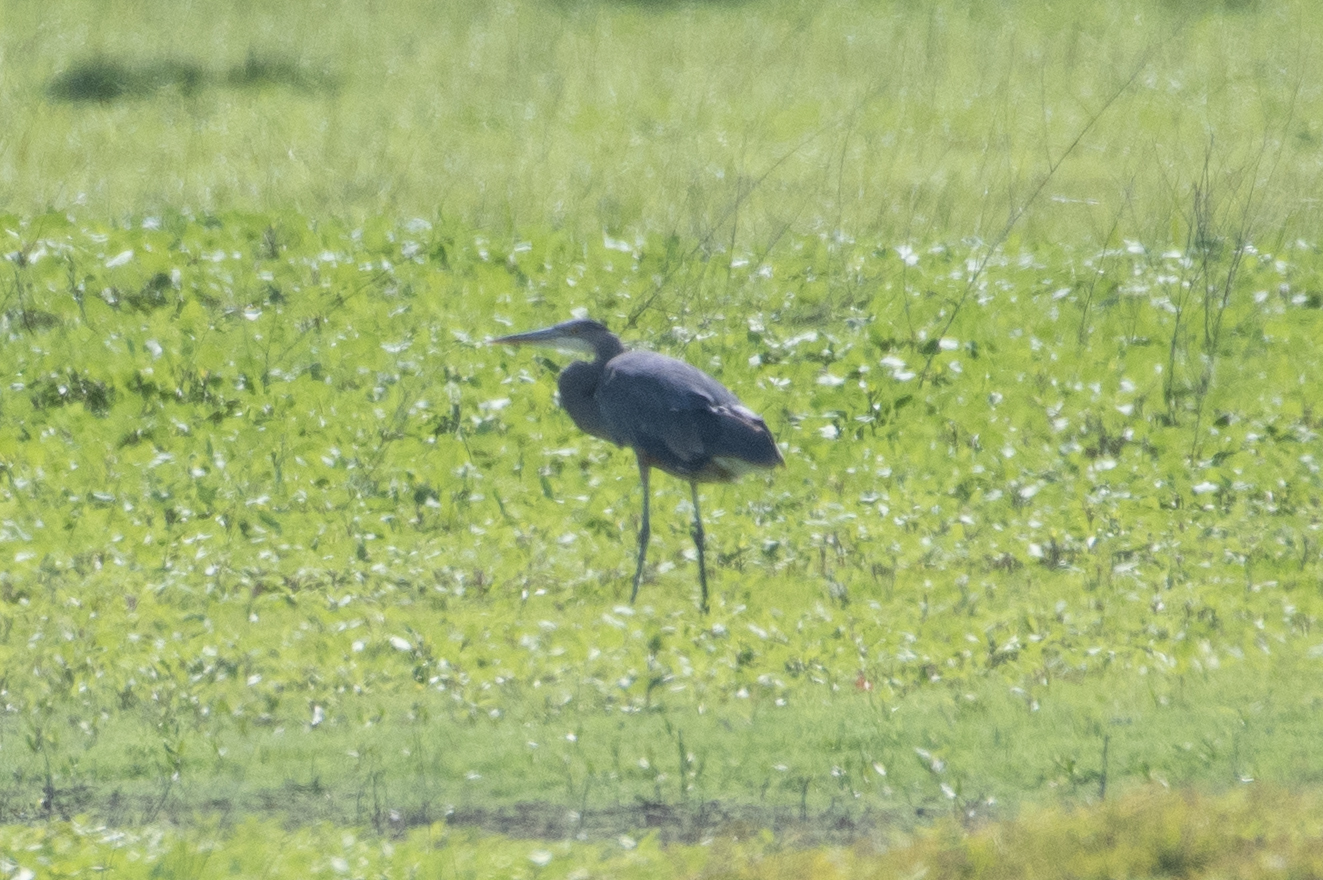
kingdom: Animalia
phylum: Chordata
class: Aves
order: Pelecaniformes
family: Ardeidae
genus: Ardea
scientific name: Ardea herodias
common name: Great blue heron
